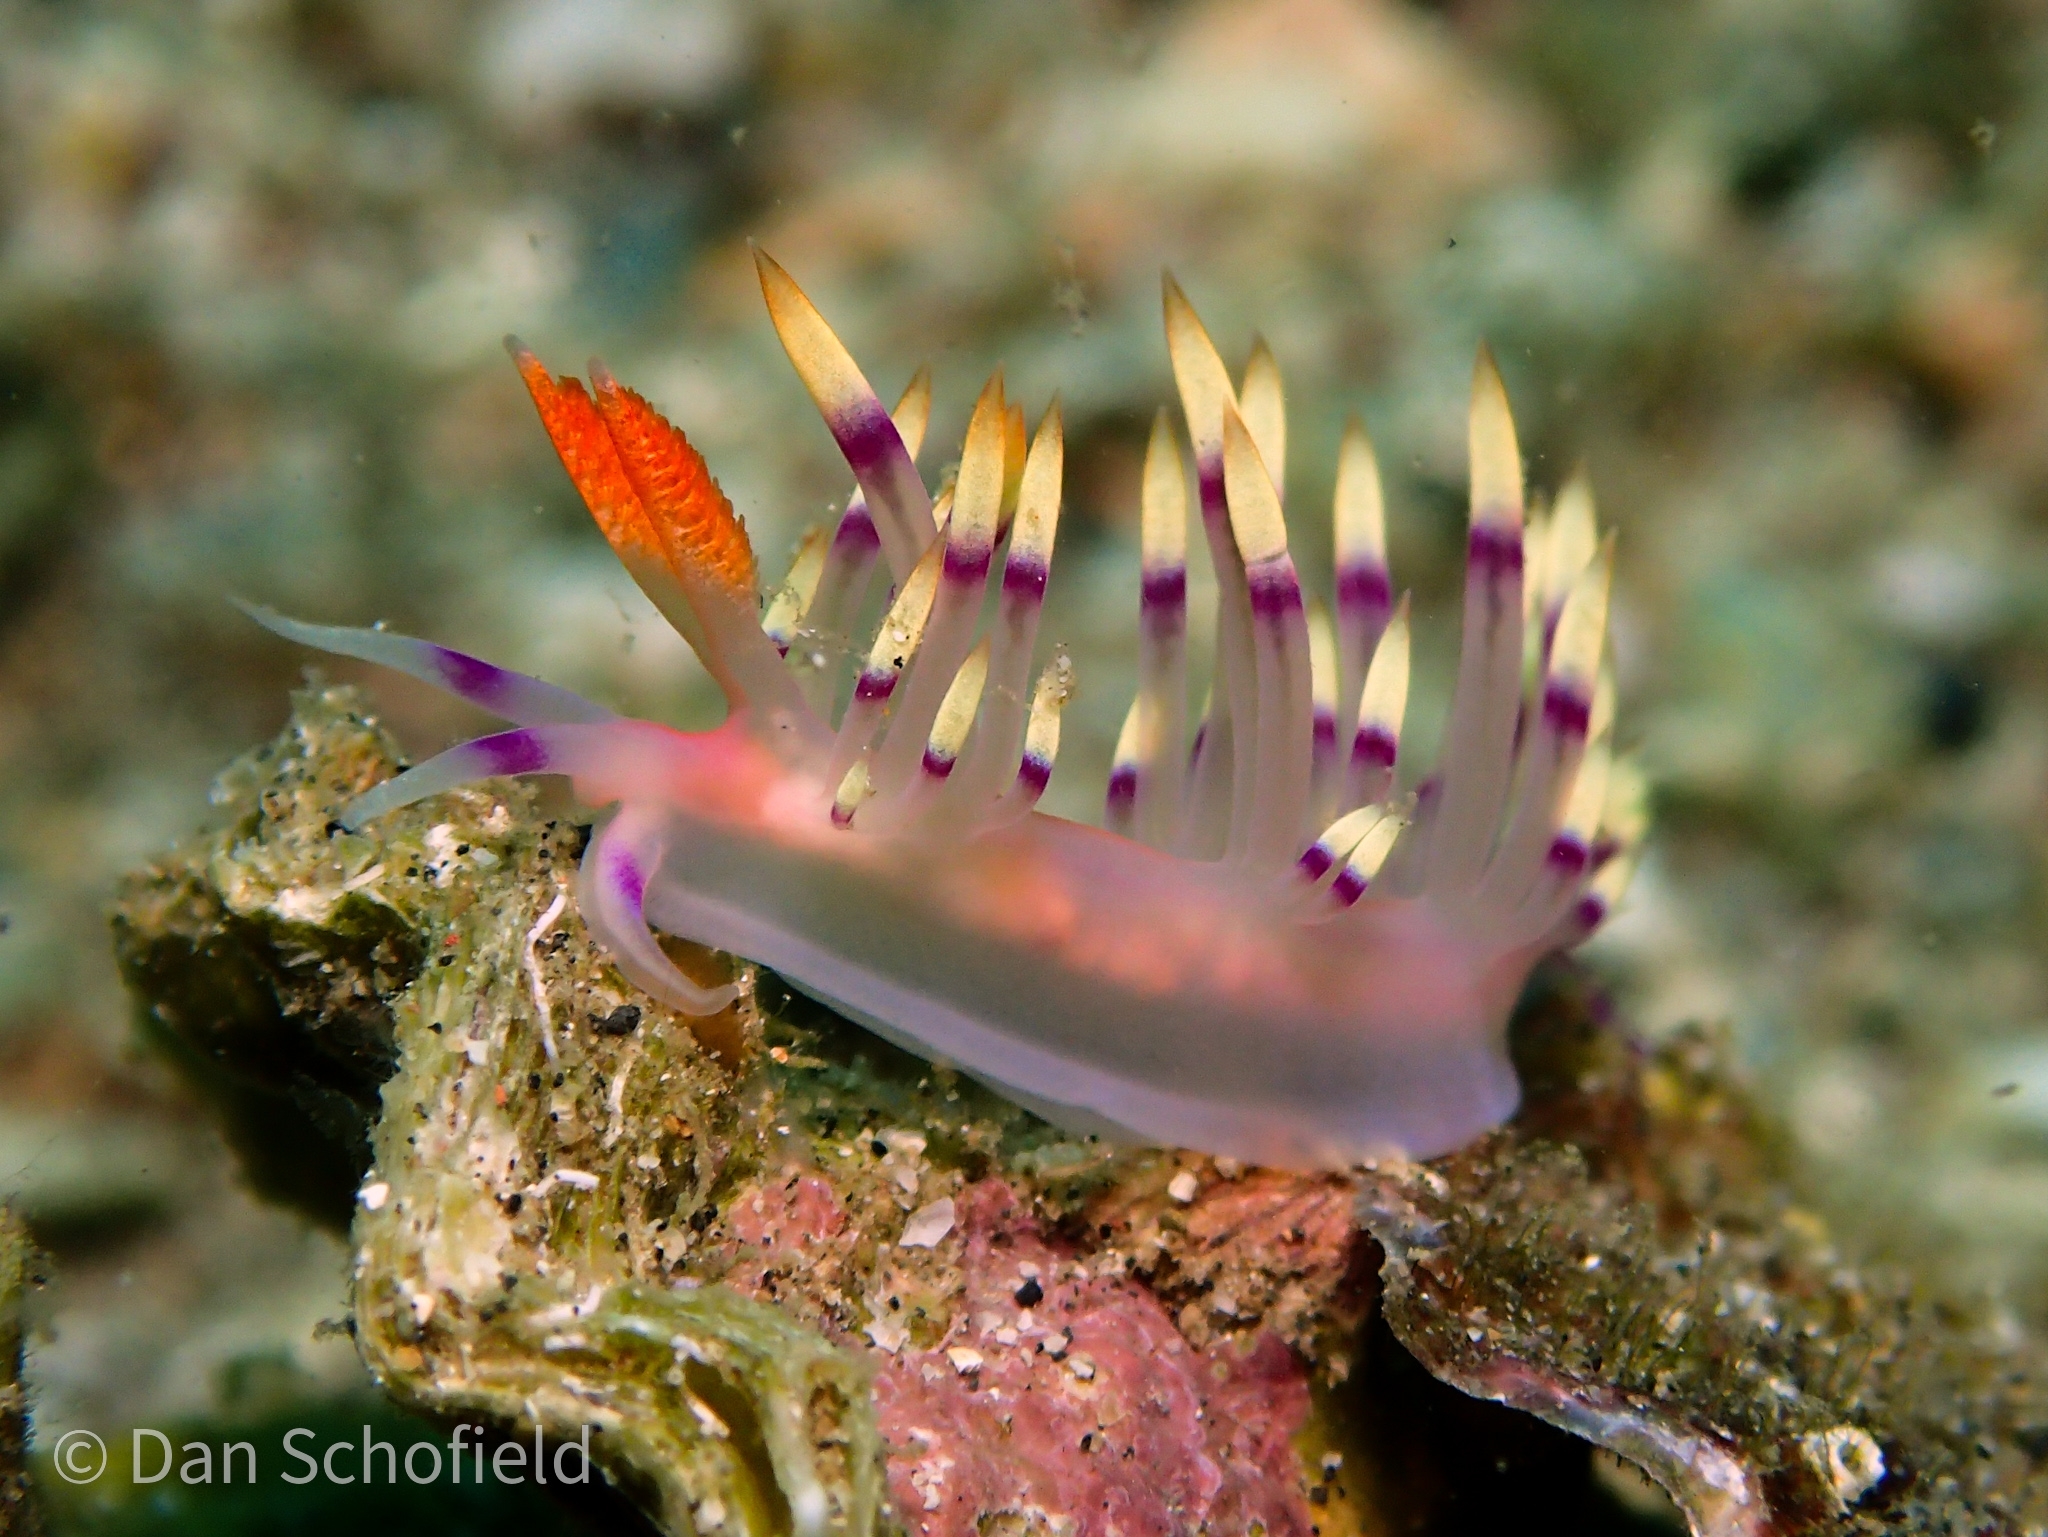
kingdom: Animalia
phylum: Mollusca
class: Gastropoda
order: Nudibranchia
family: Flabellinidae
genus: Coryphellina
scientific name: Coryphellina exoptata
